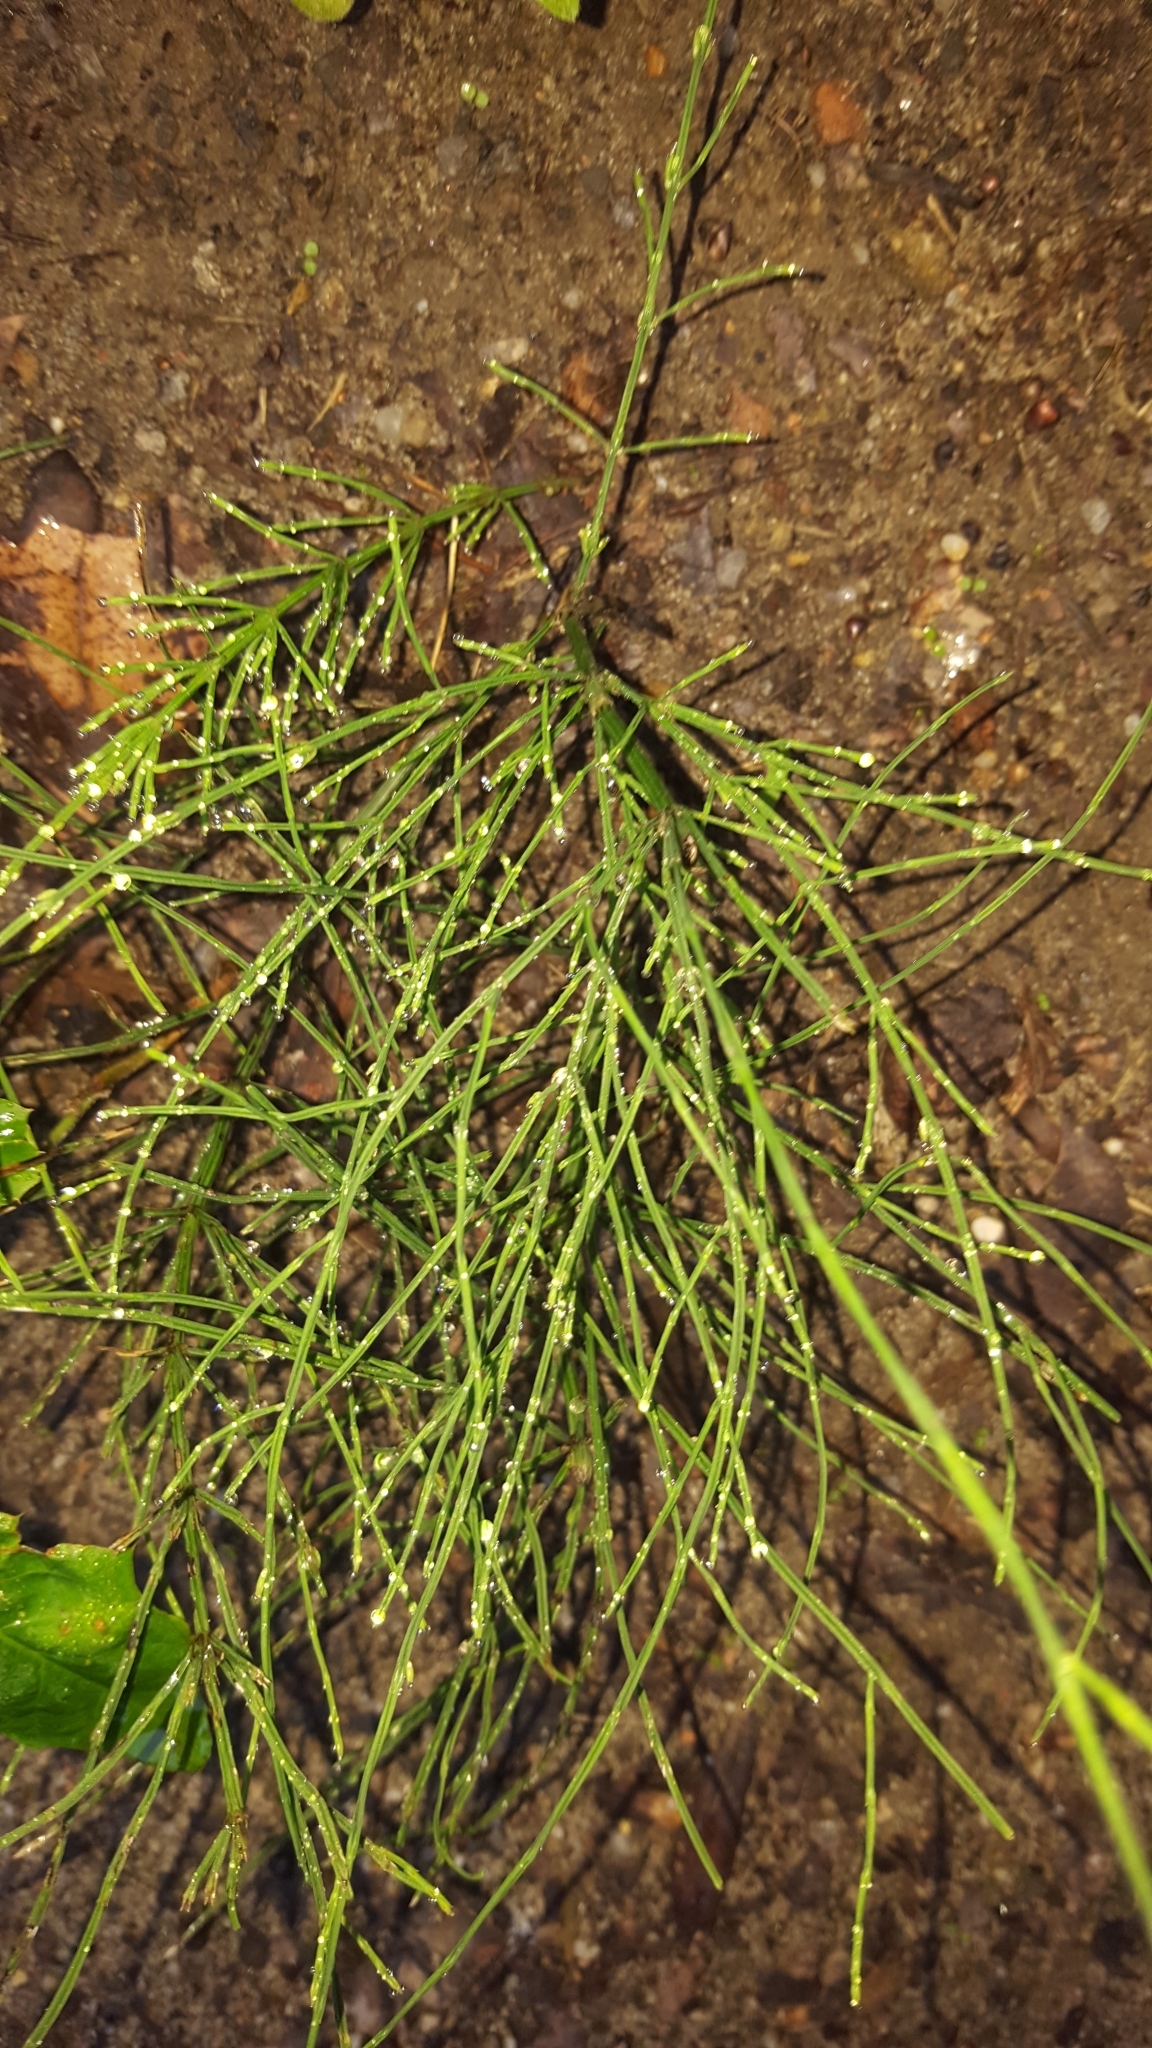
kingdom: Plantae
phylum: Tracheophyta
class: Polypodiopsida
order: Equisetales
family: Equisetaceae
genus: Equisetum
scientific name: Equisetum arvense
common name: Field horsetail
